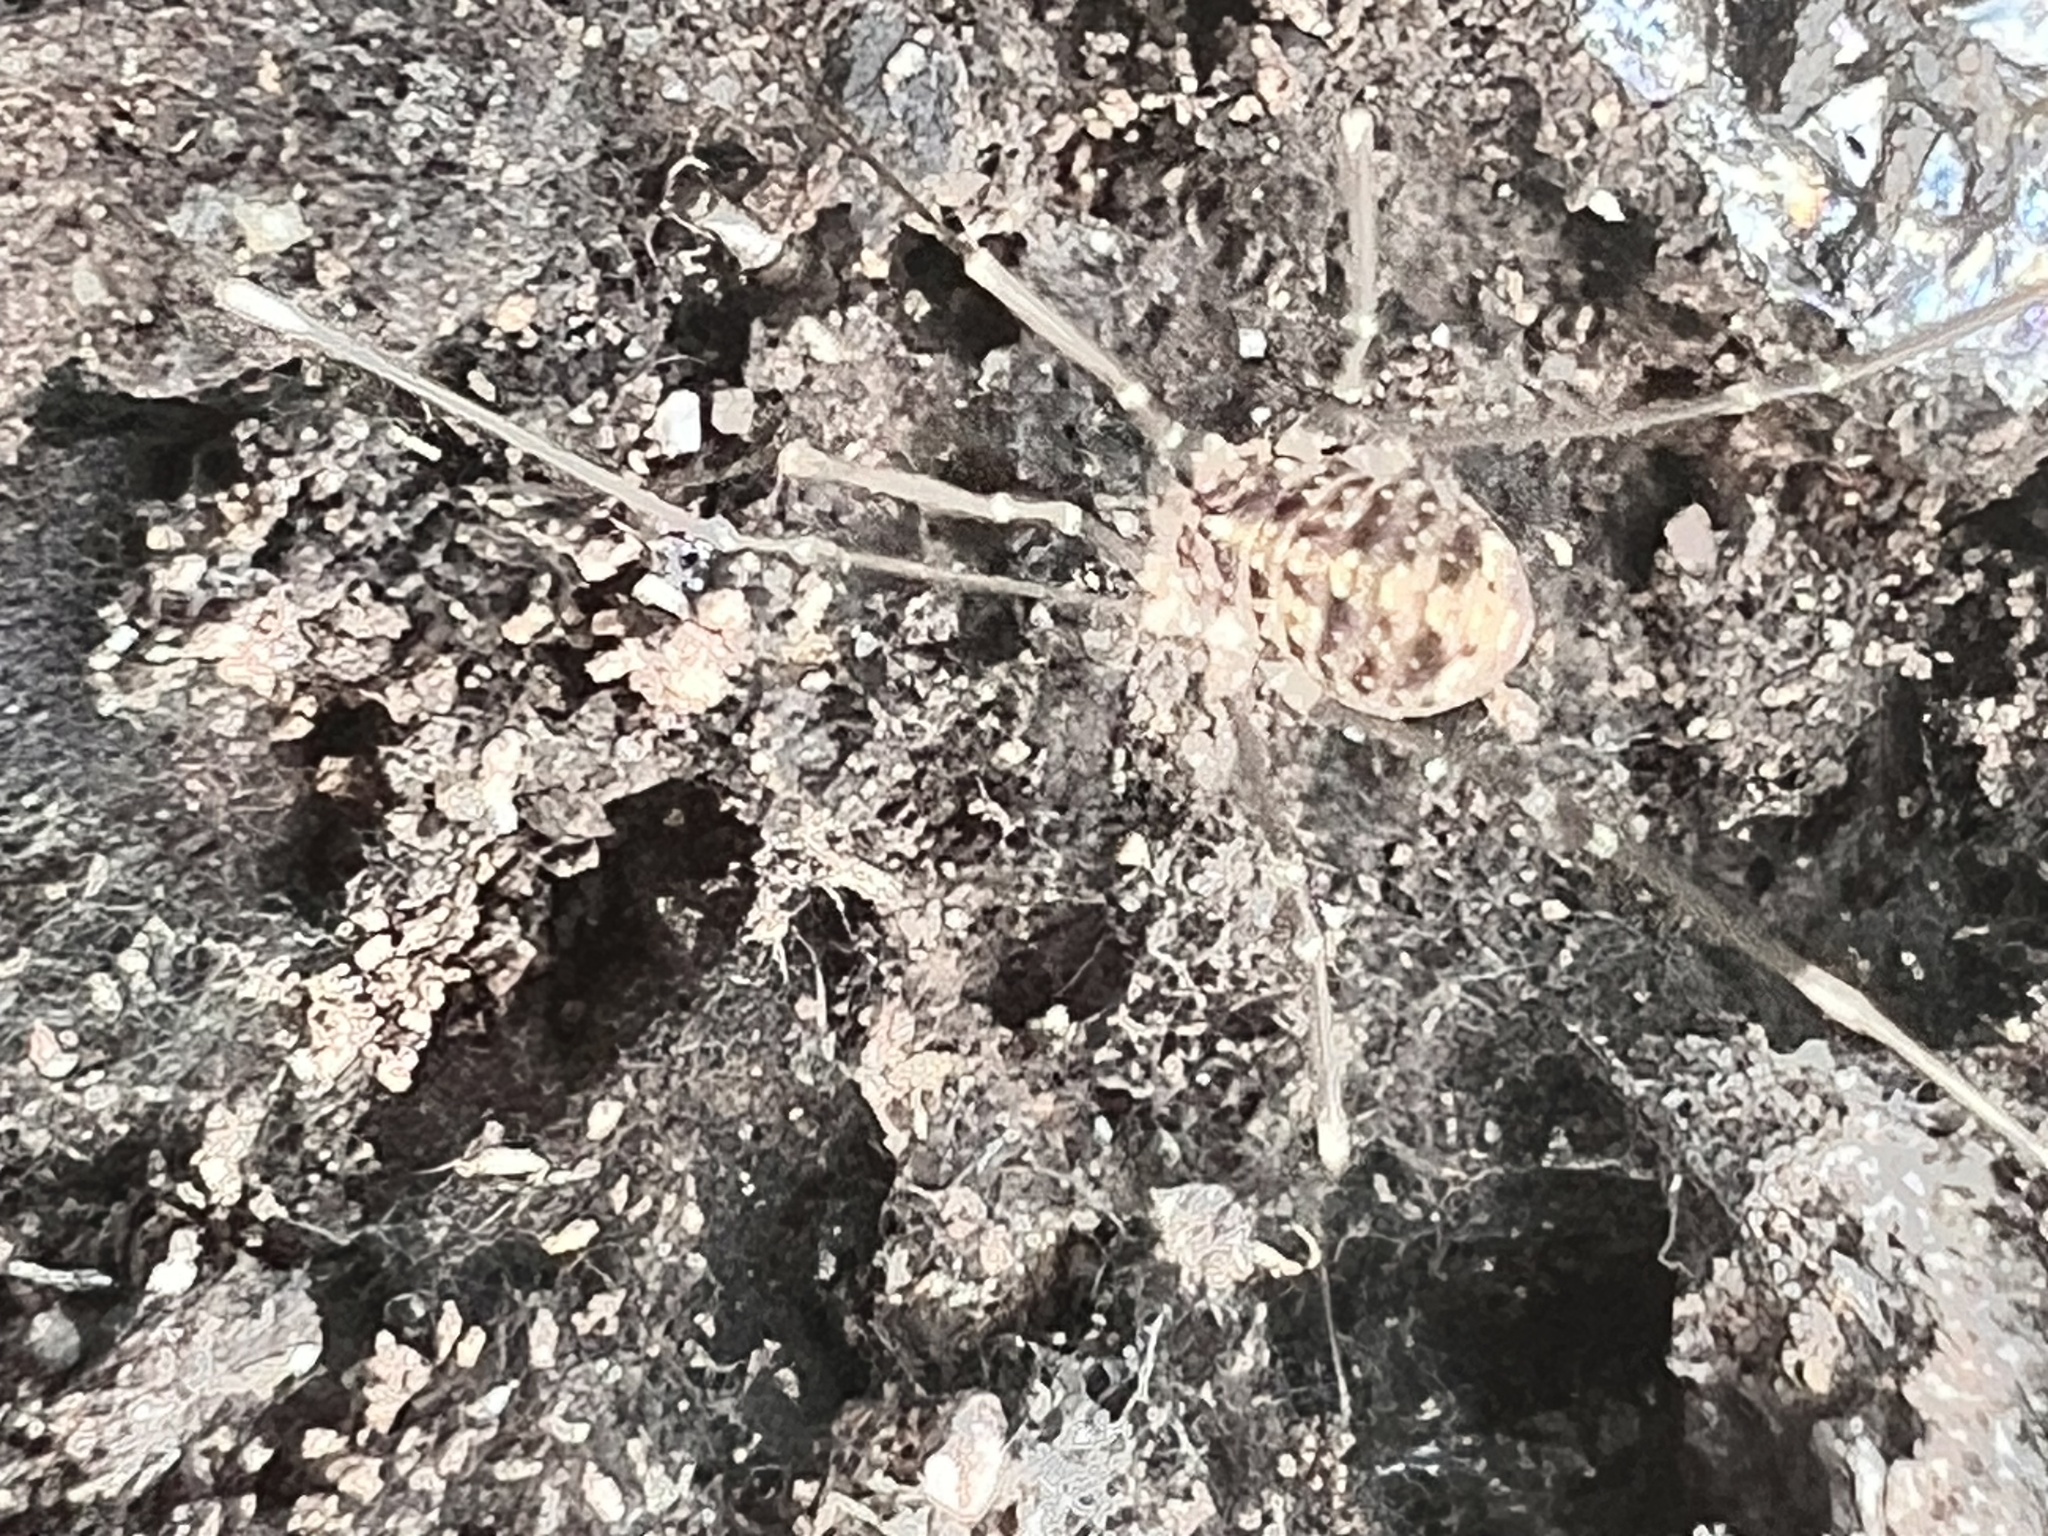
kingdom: Animalia
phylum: Arthropoda
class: Arachnida
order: Opiliones
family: Sclerosomatidae
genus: Nelima
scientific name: Nelima doriae
